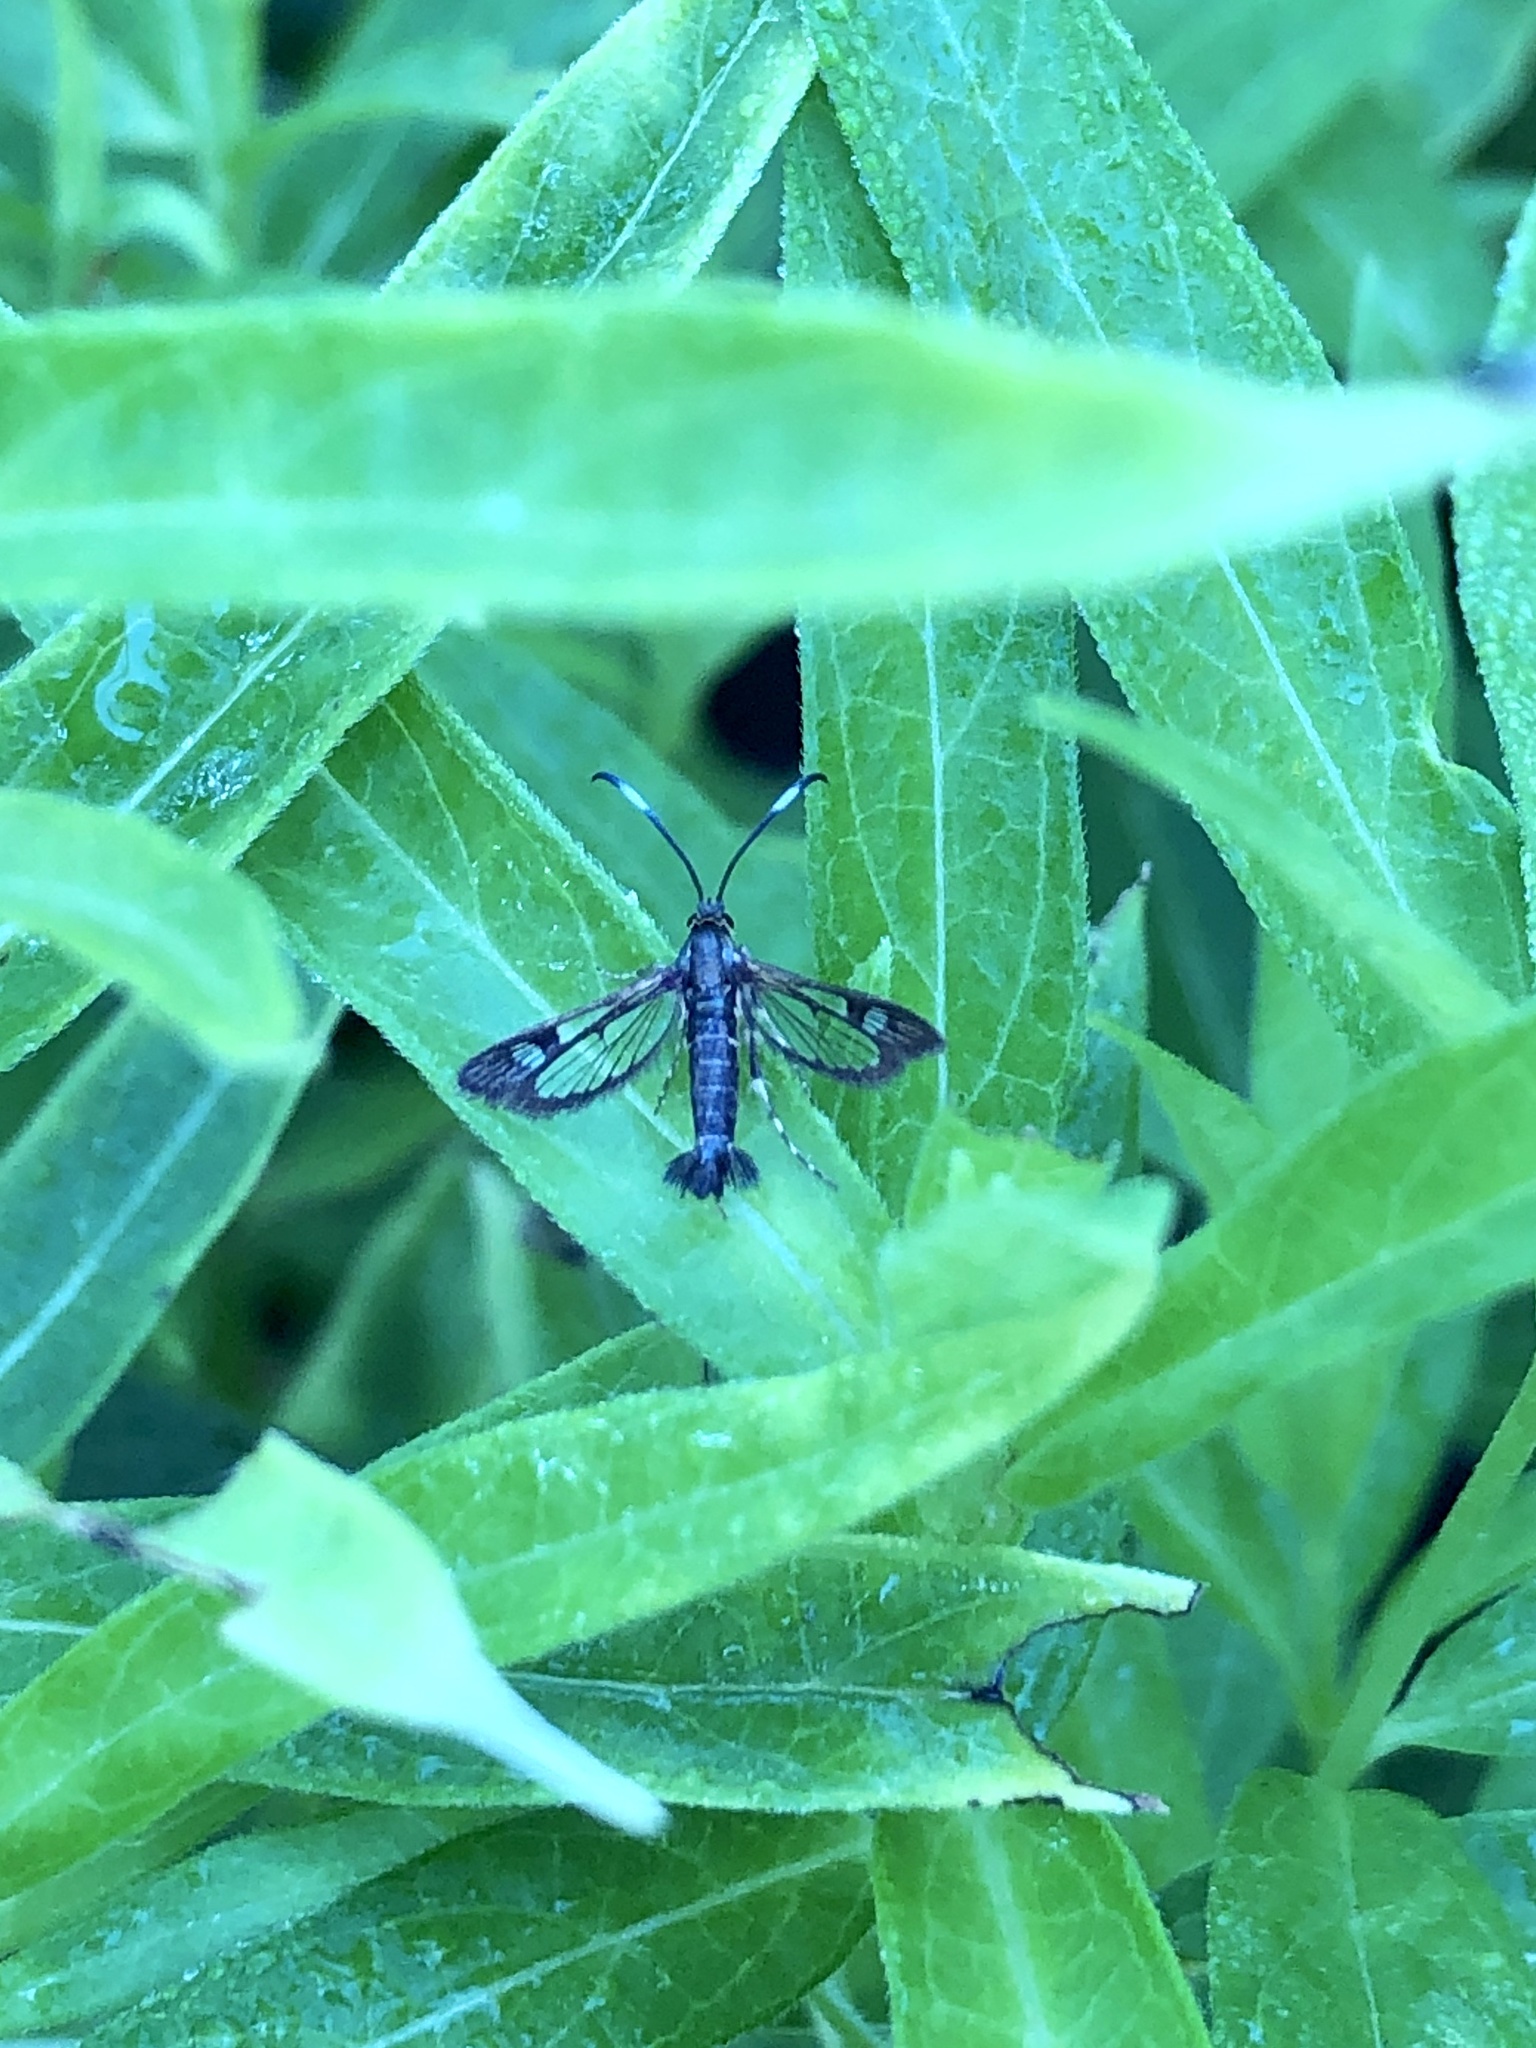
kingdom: Animalia
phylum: Arthropoda
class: Insecta
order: Lepidoptera
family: Sesiidae
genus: Carmenta
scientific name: Carmenta ithacae
